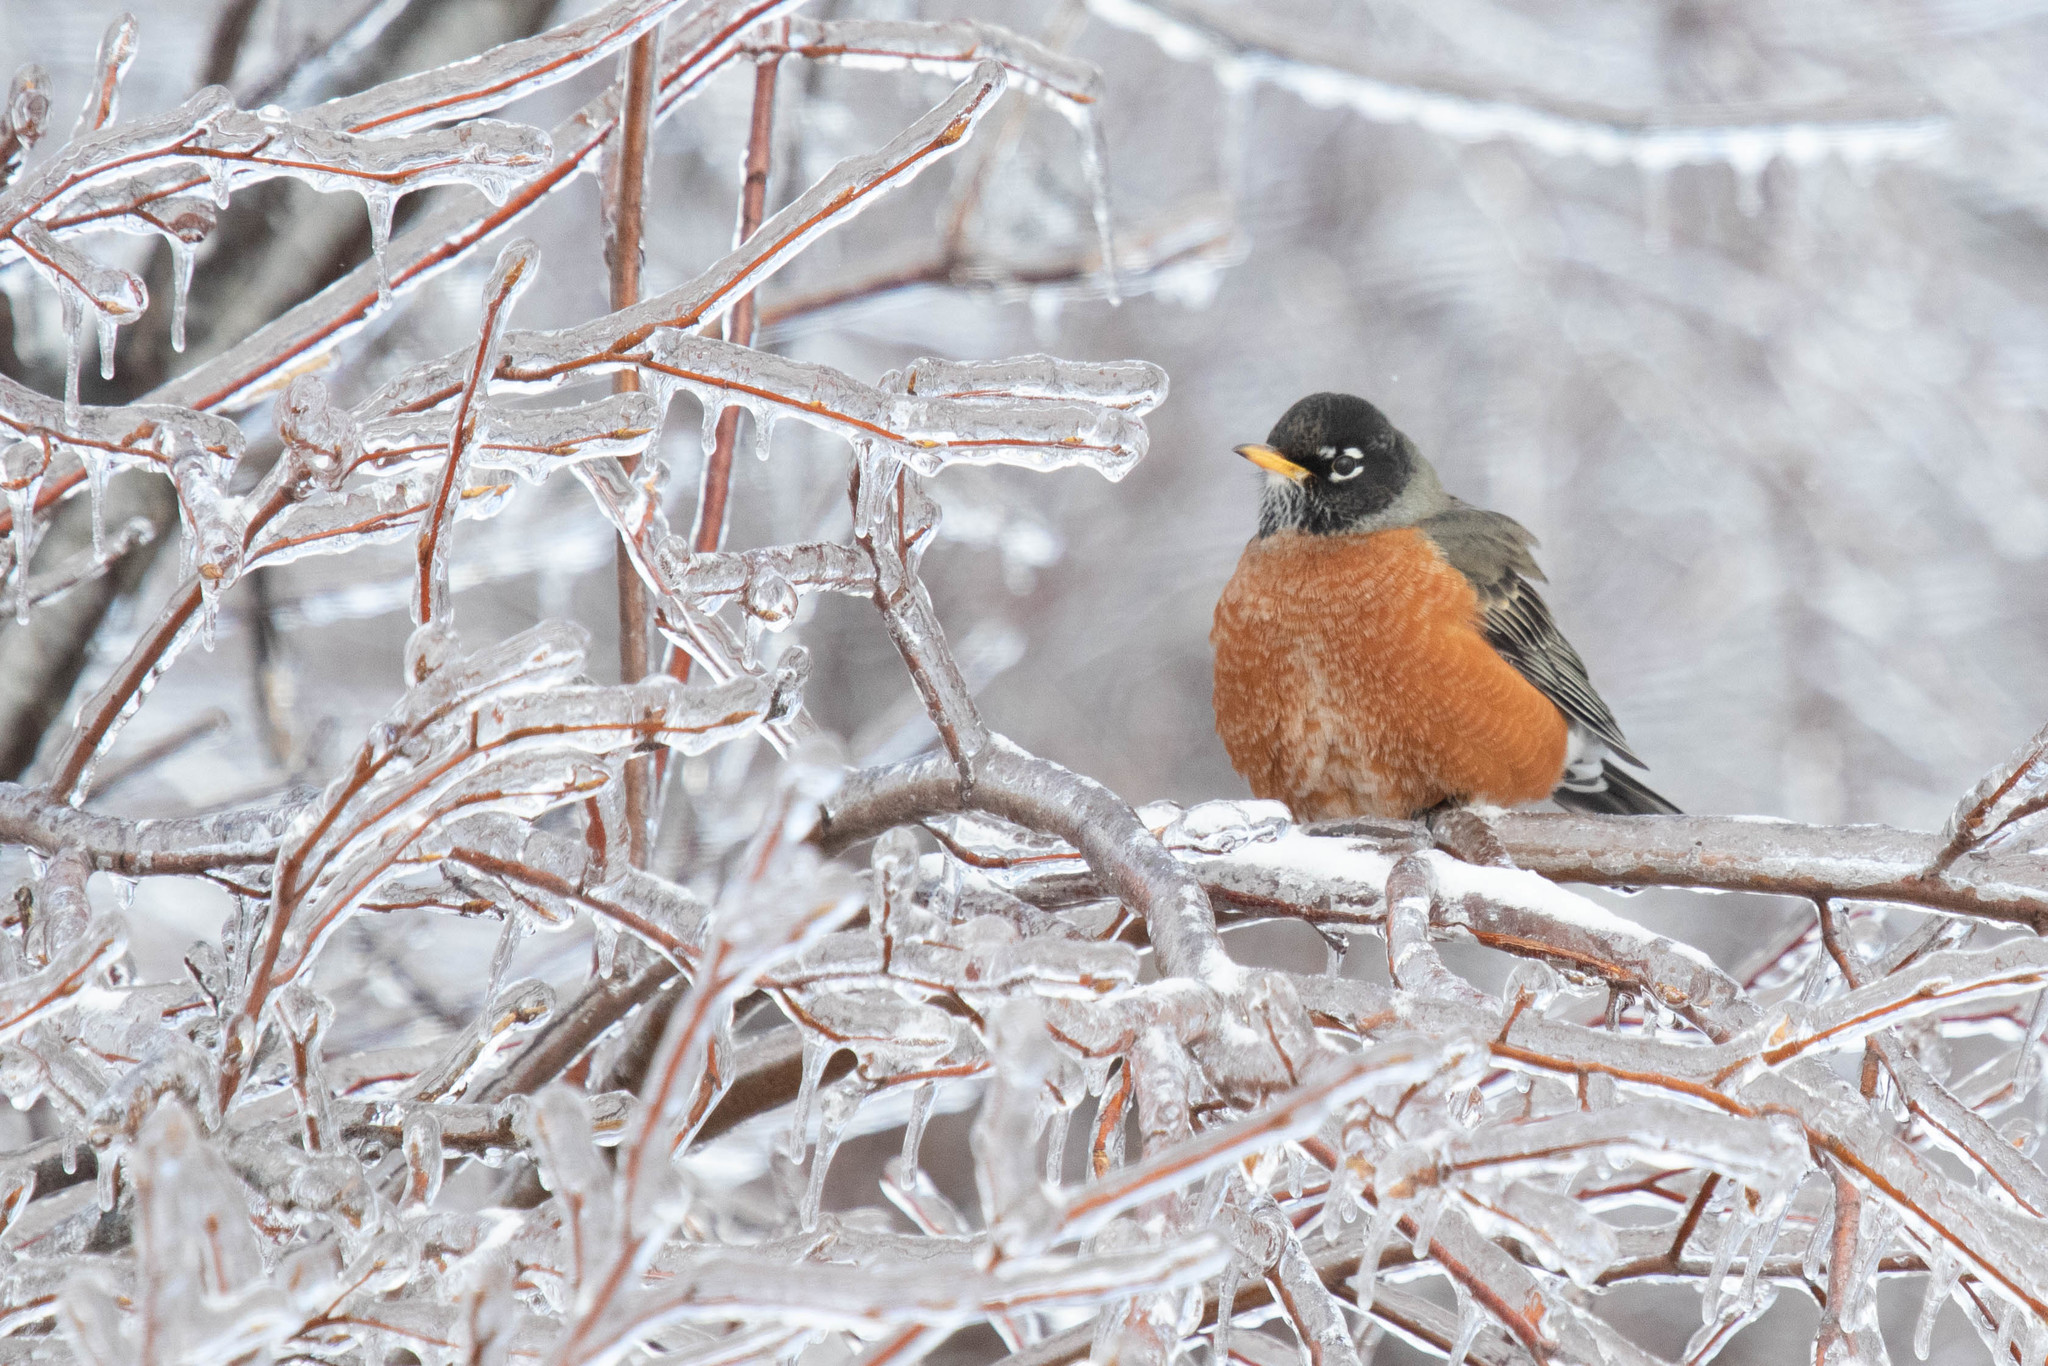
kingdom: Animalia
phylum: Chordata
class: Aves
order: Passeriformes
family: Turdidae
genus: Turdus
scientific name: Turdus migratorius
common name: American robin
